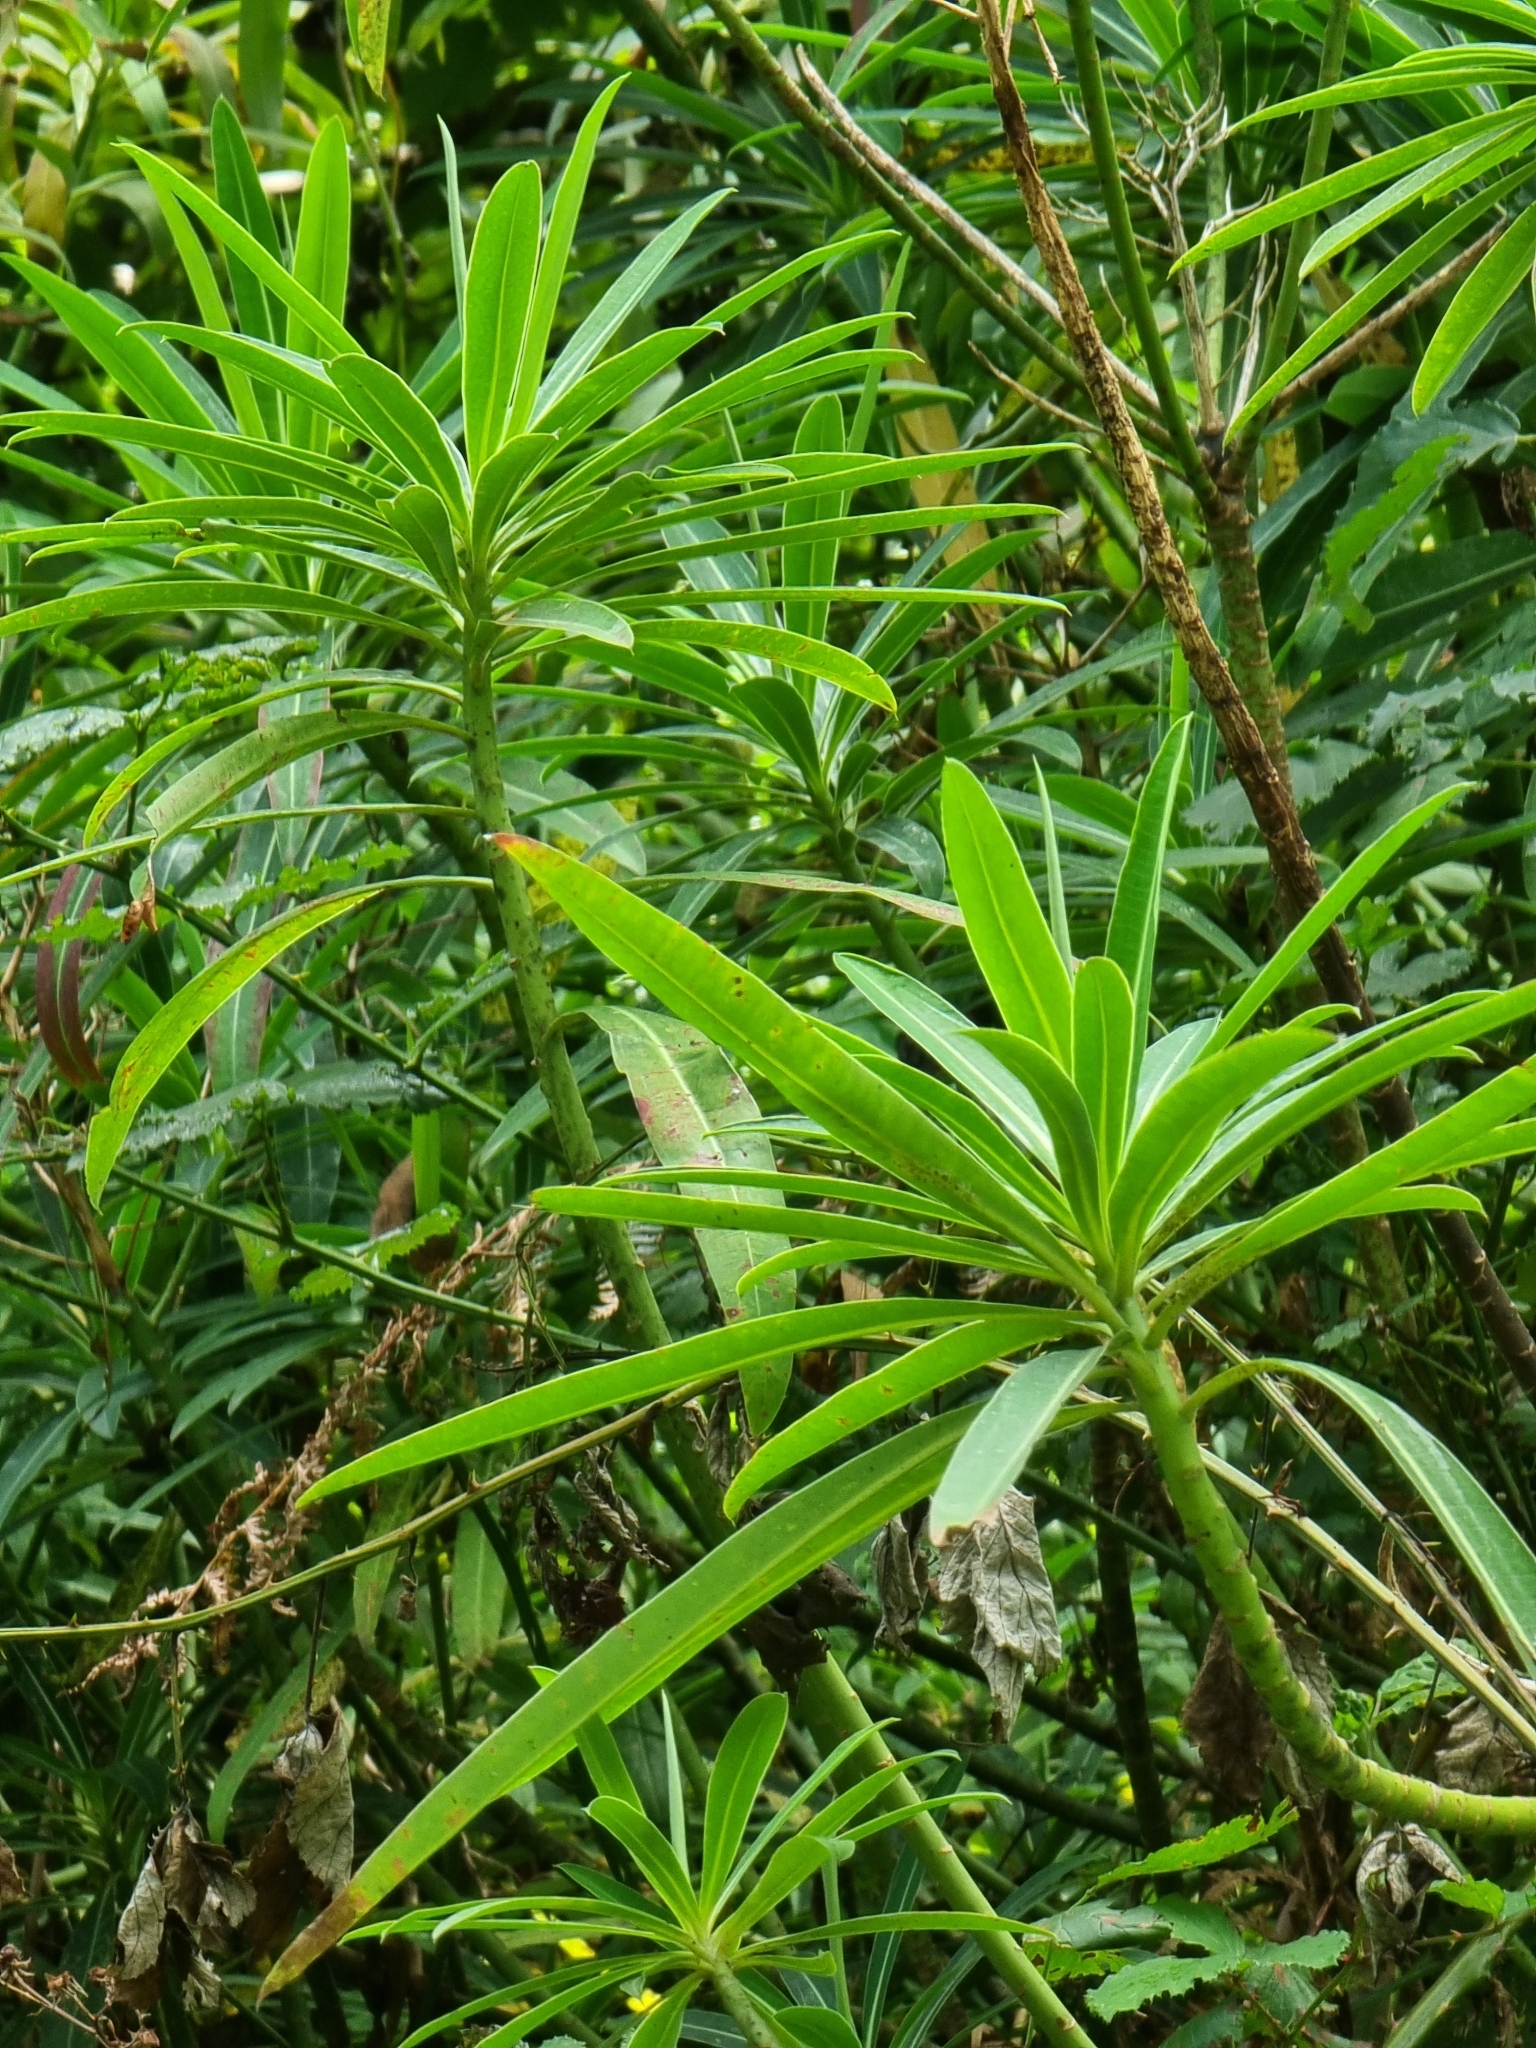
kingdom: Plantae
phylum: Tracheophyta
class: Magnoliopsida
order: Malpighiales
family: Euphorbiaceae
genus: Euphorbia
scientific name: Euphorbia mellifera
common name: Canary spurge
